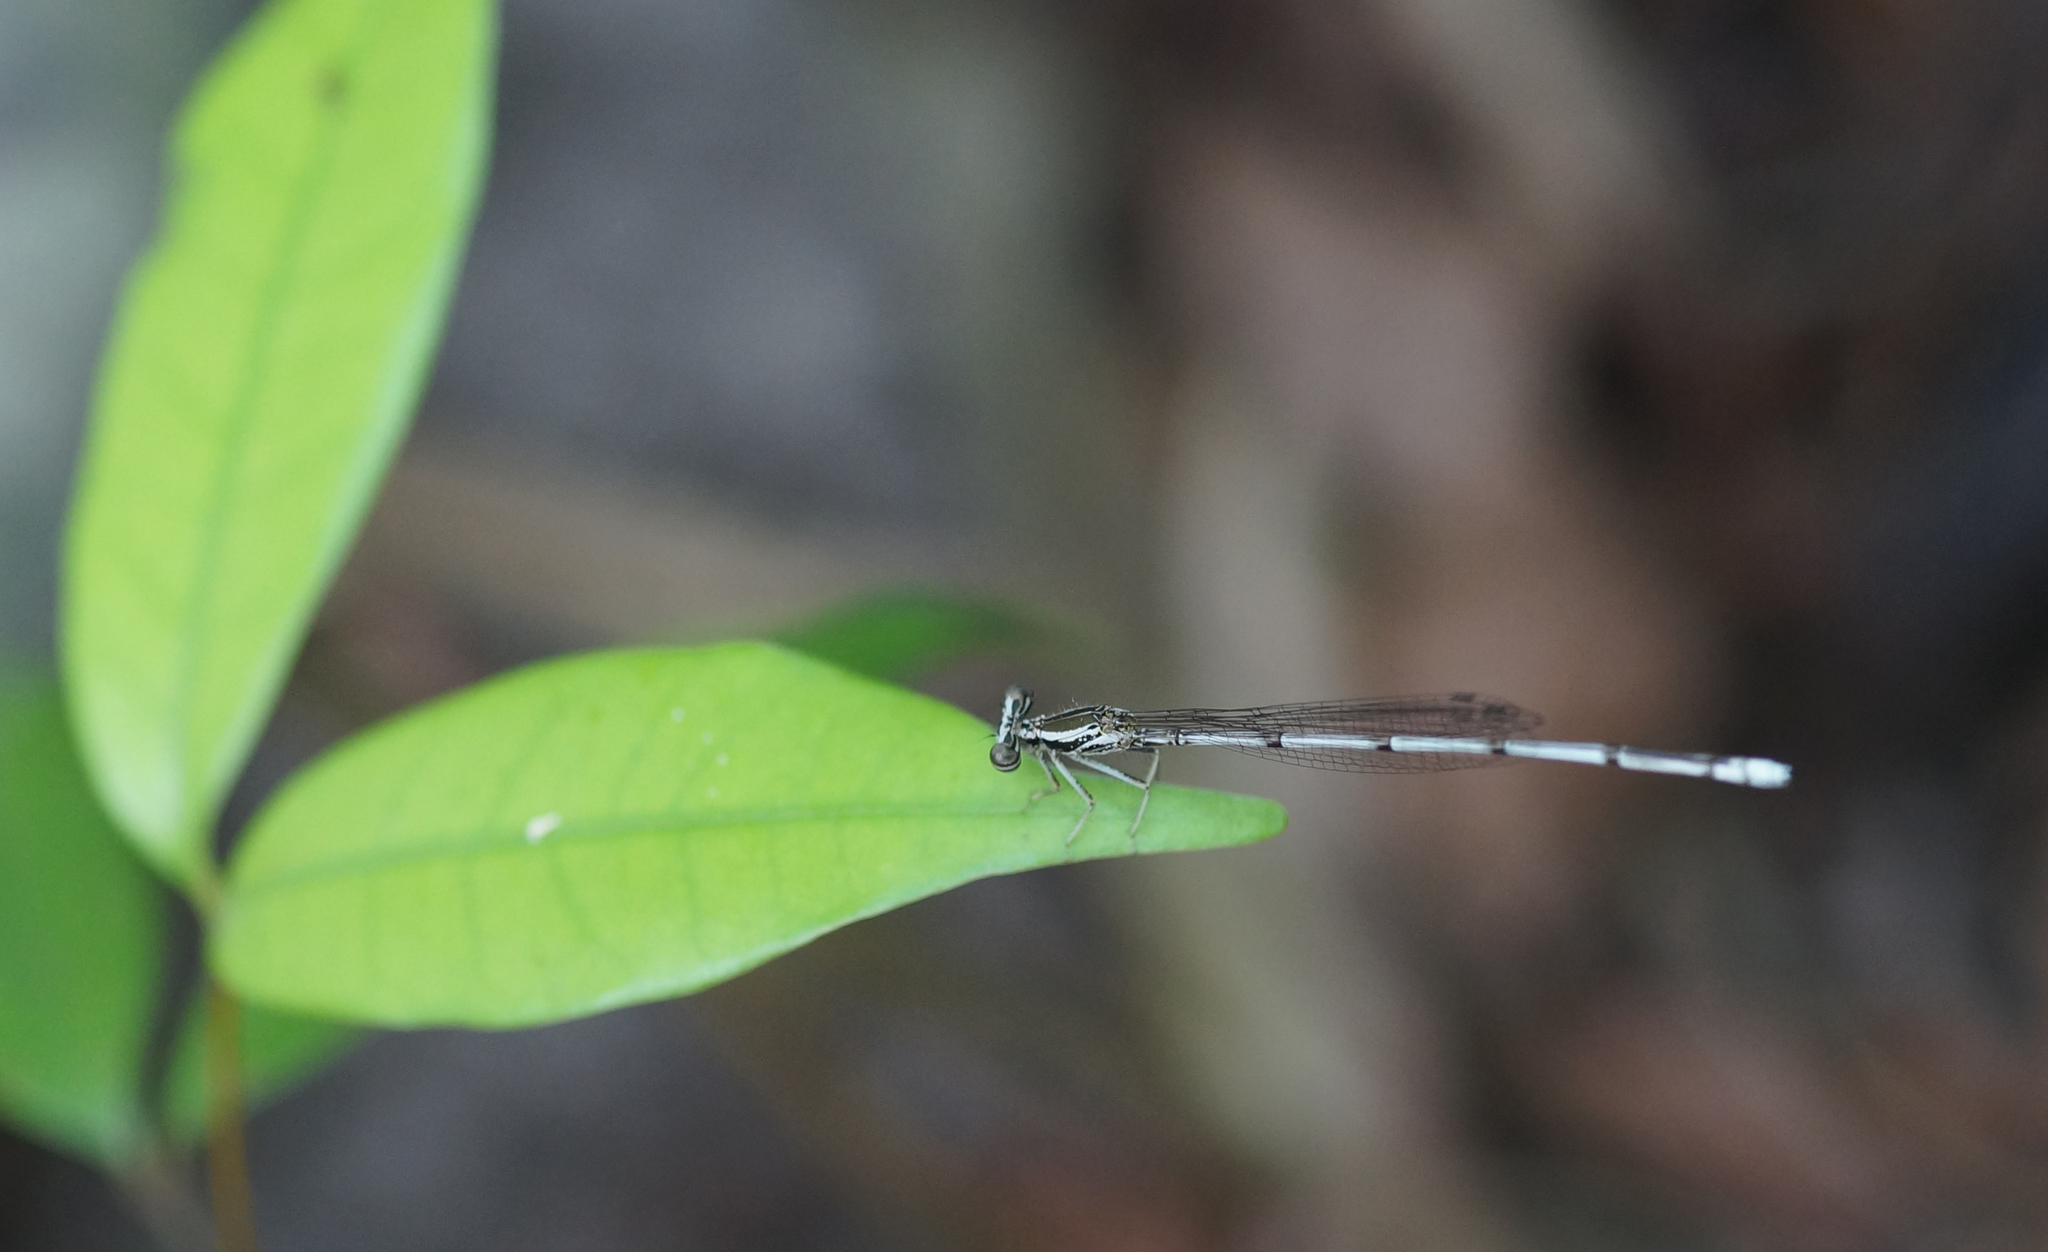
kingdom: Animalia
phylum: Arthropoda
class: Insecta
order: Odonata
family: Platycnemididae
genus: Copera
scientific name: Copera marginipes
